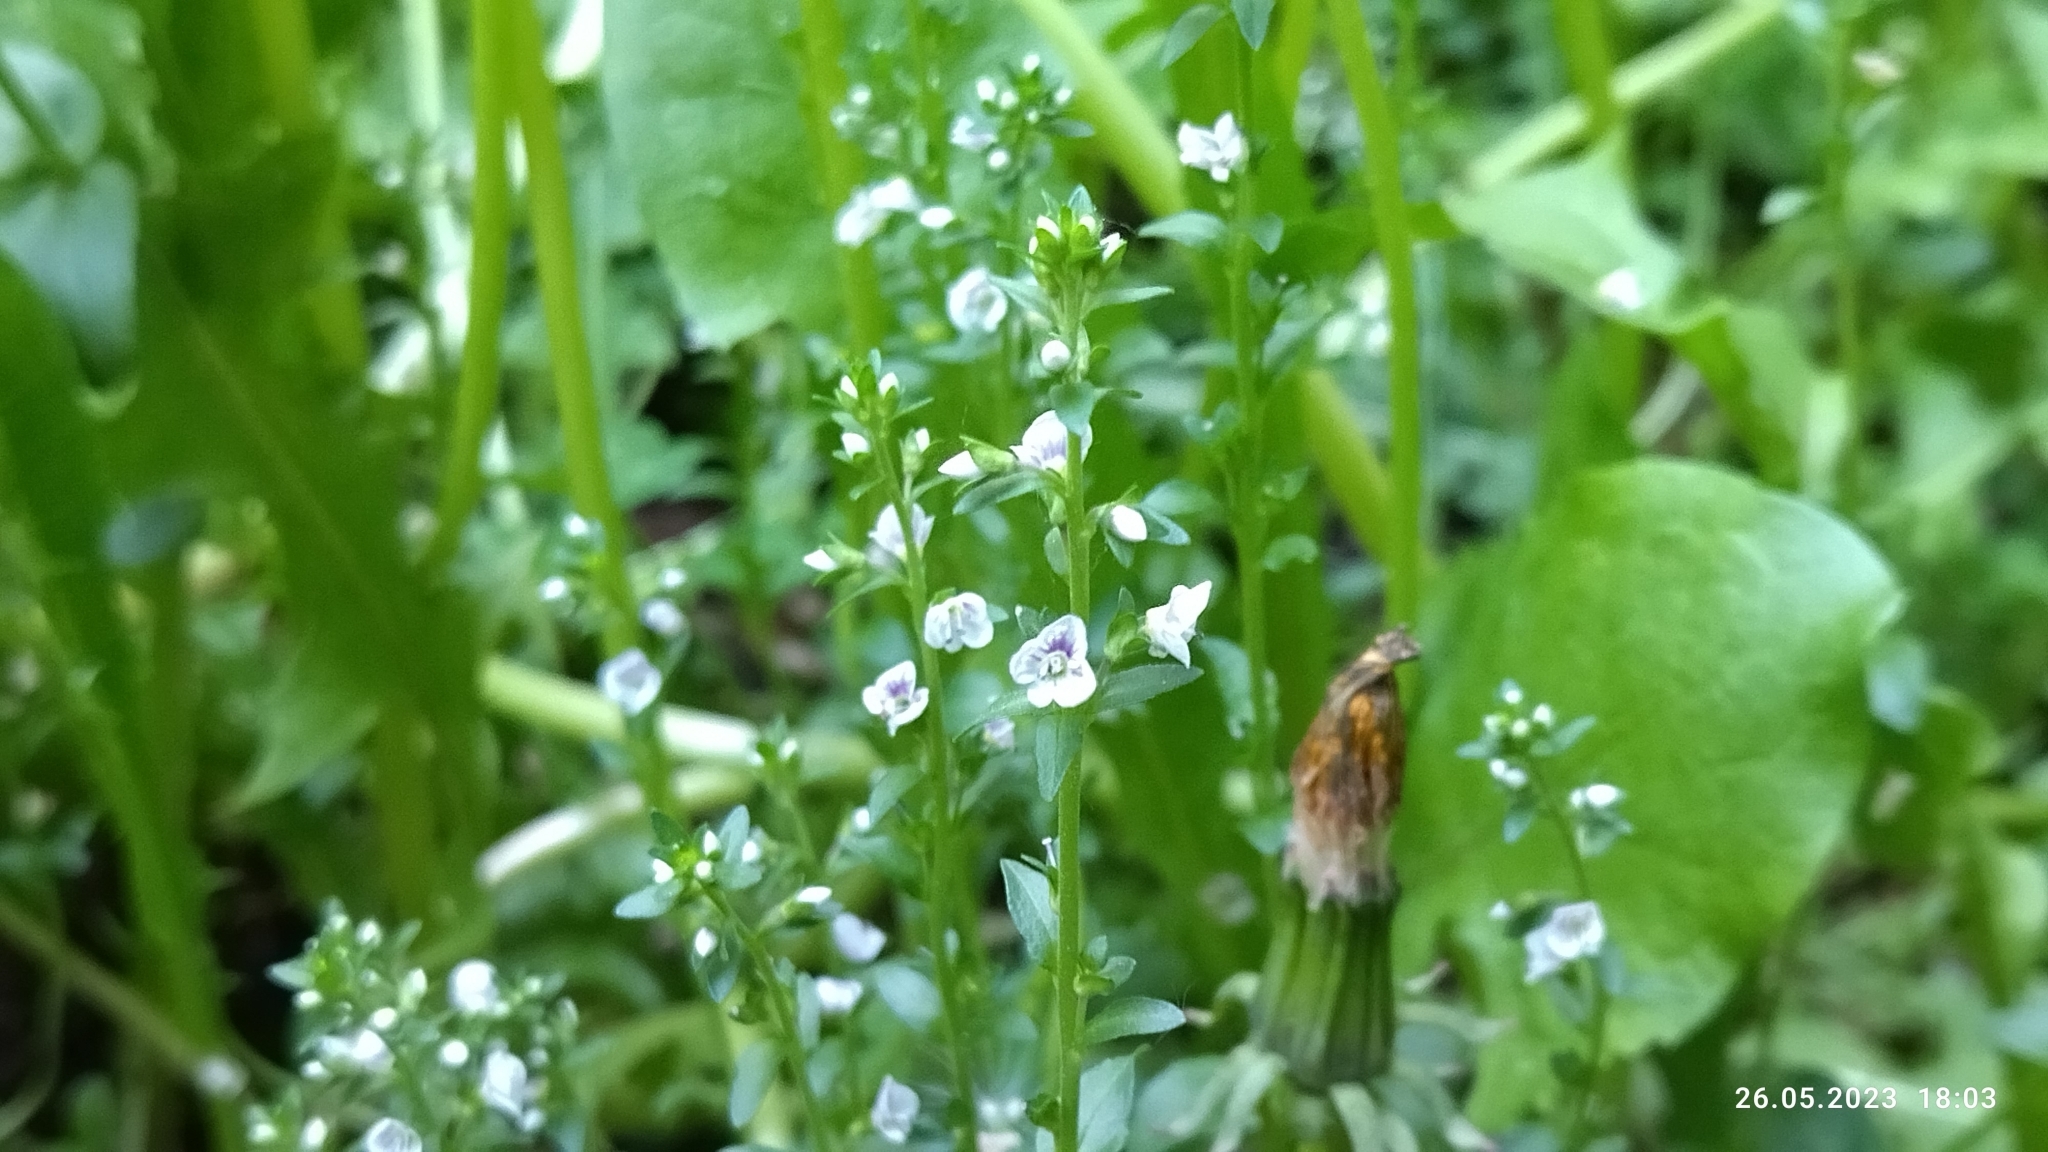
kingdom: Plantae
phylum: Tracheophyta
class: Magnoliopsida
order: Lamiales
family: Plantaginaceae
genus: Veronica
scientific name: Veronica serpyllifolia
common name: Thyme-leaved speedwell
